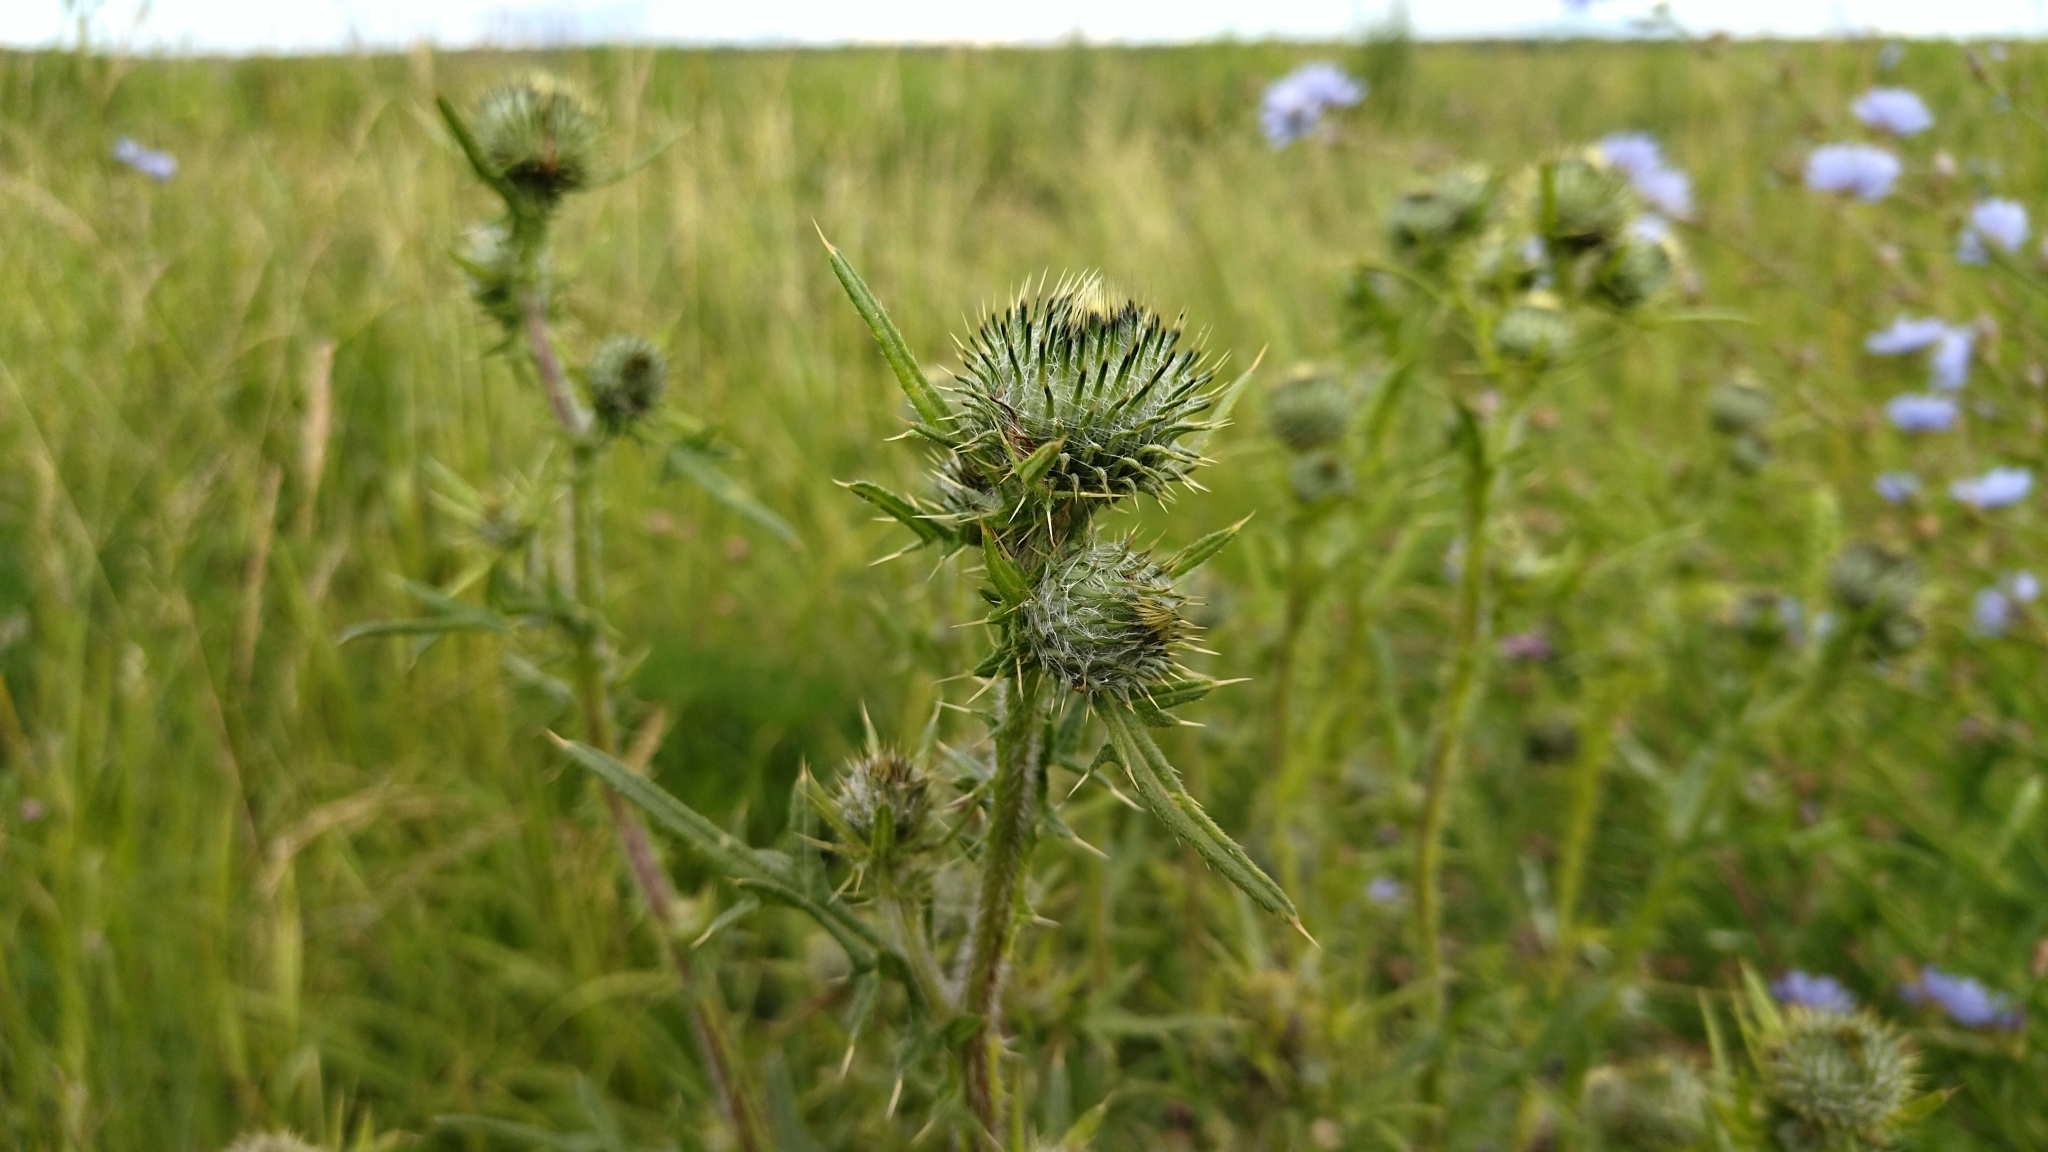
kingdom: Plantae
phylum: Tracheophyta
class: Magnoliopsida
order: Asterales
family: Asteraceae
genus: Cirsium
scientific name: Cirsium vulgare
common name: Bull thistle
